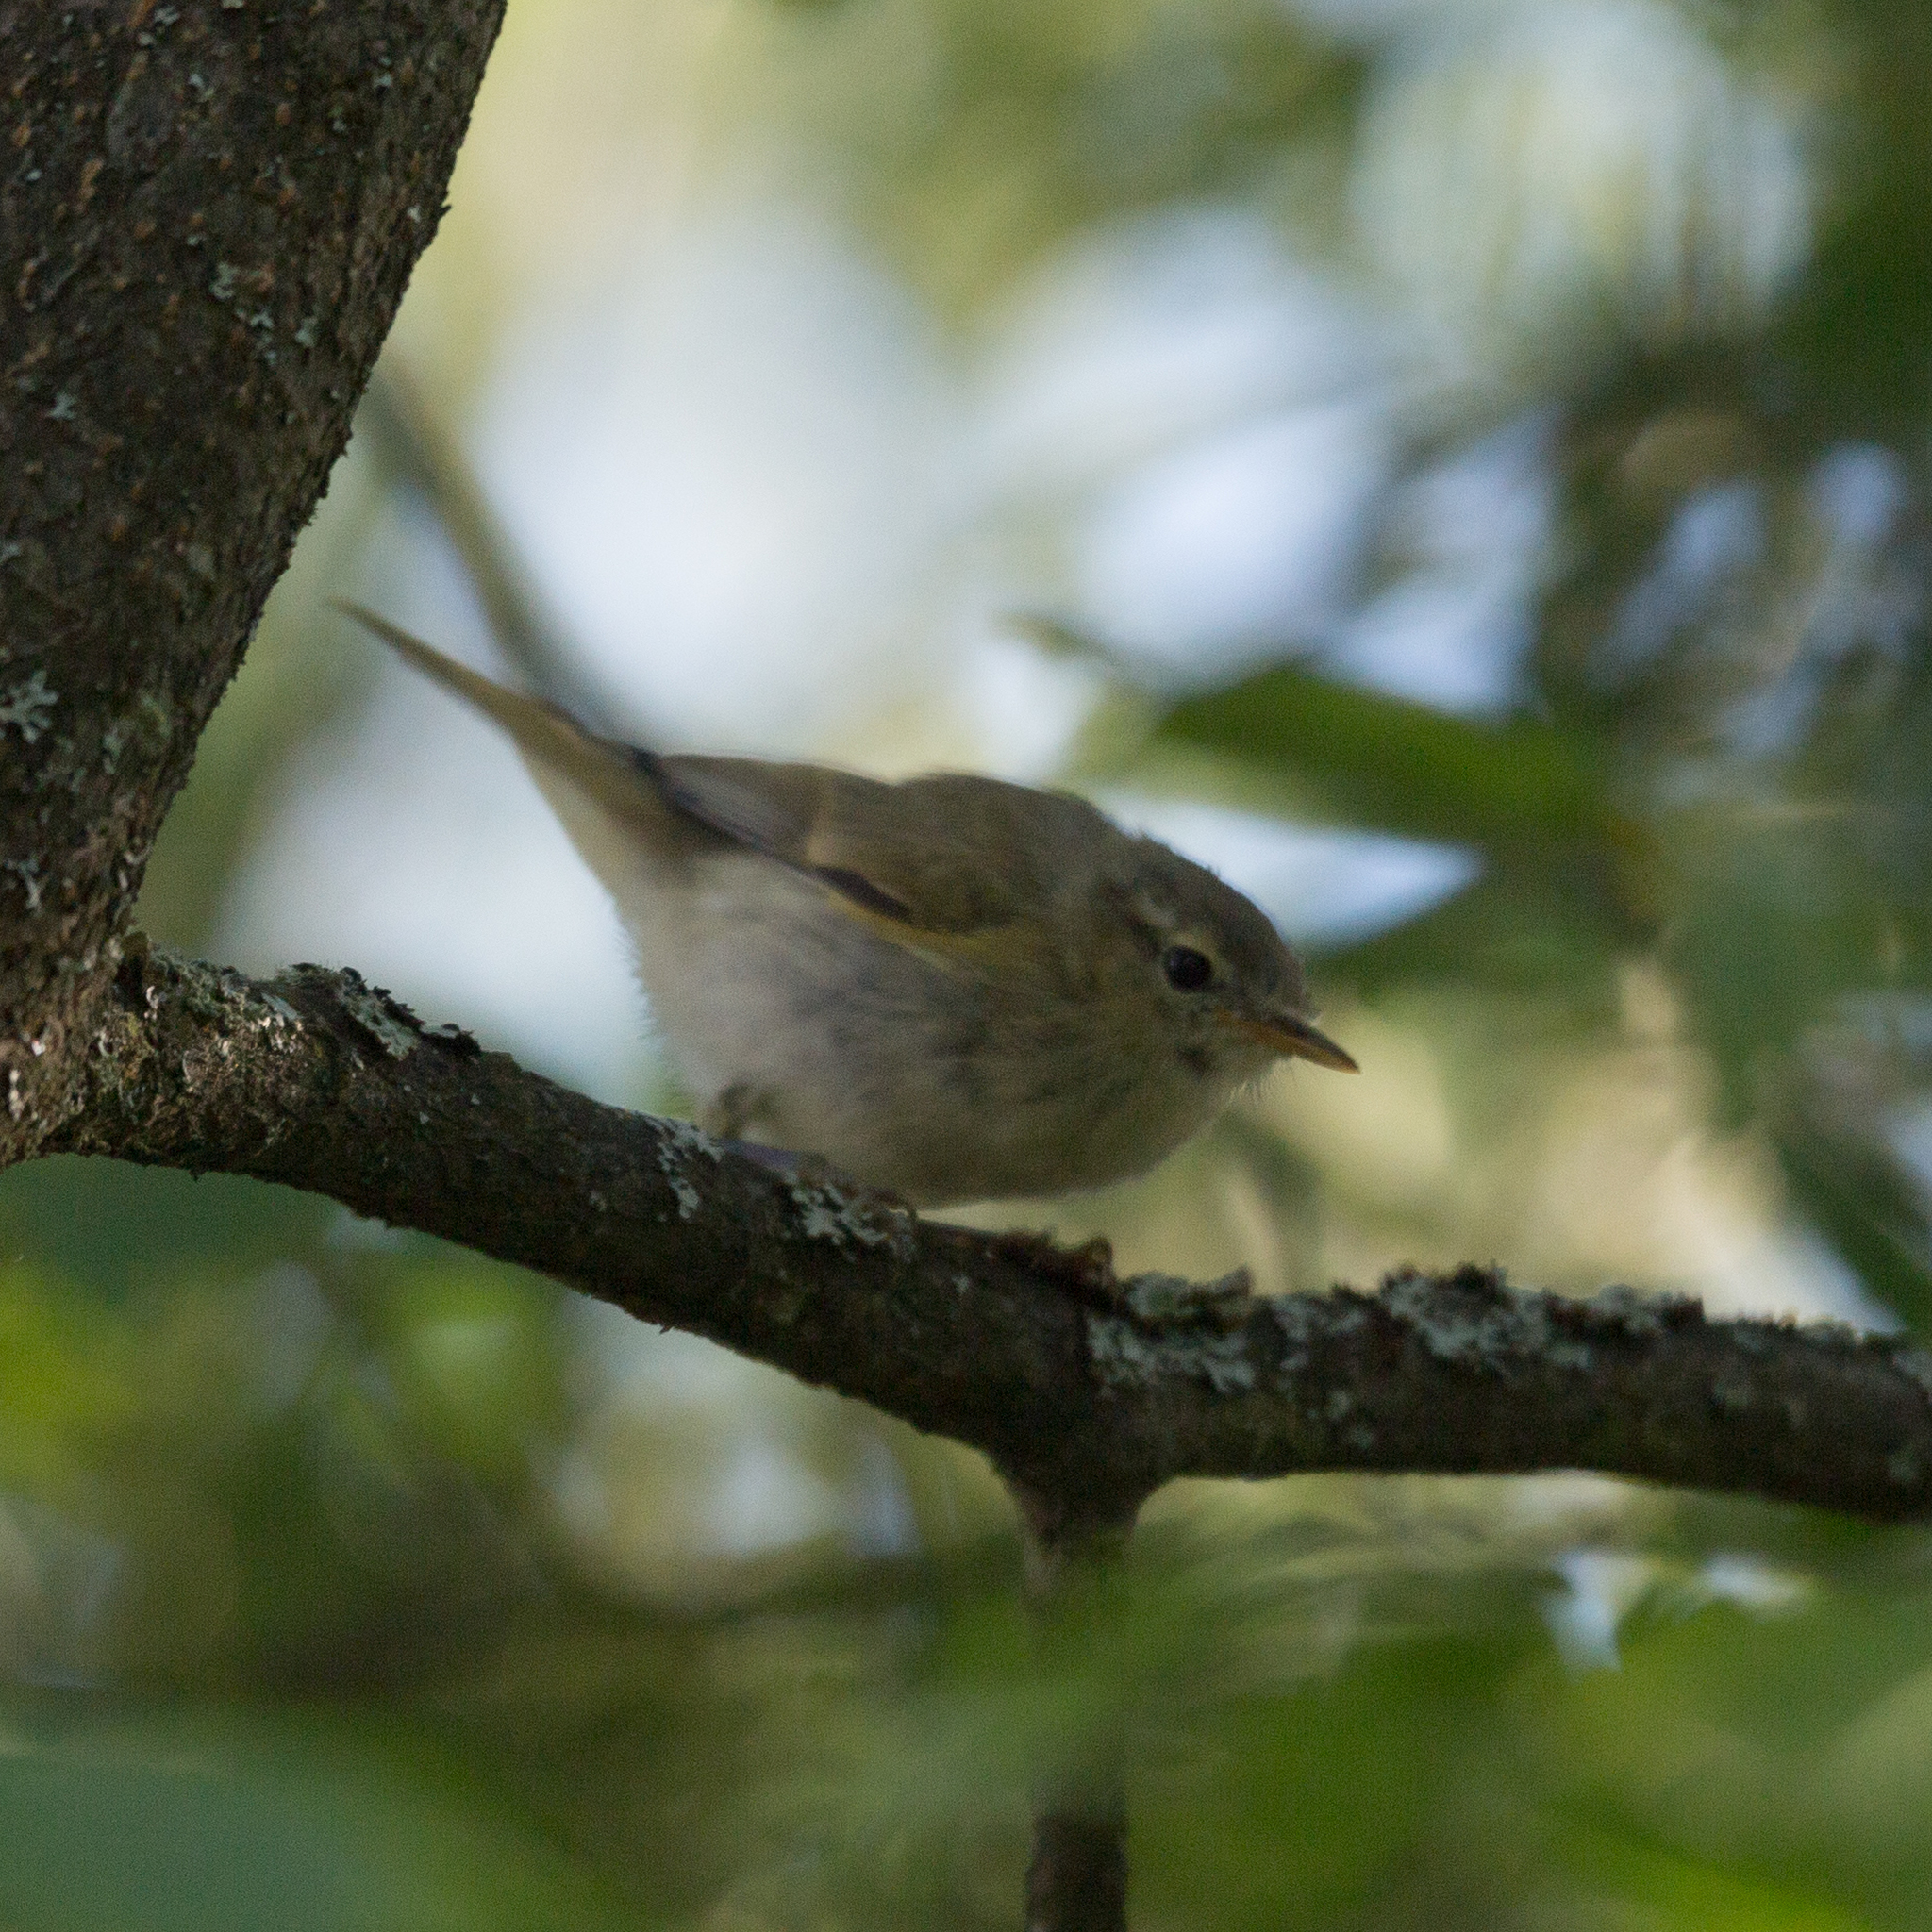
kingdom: Animalia
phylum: Chordata
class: Aves
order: Passeriformes
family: Phylloscopidae
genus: Phylloscopus
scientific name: Phylloscopus collybita
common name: Common chiffchaff
